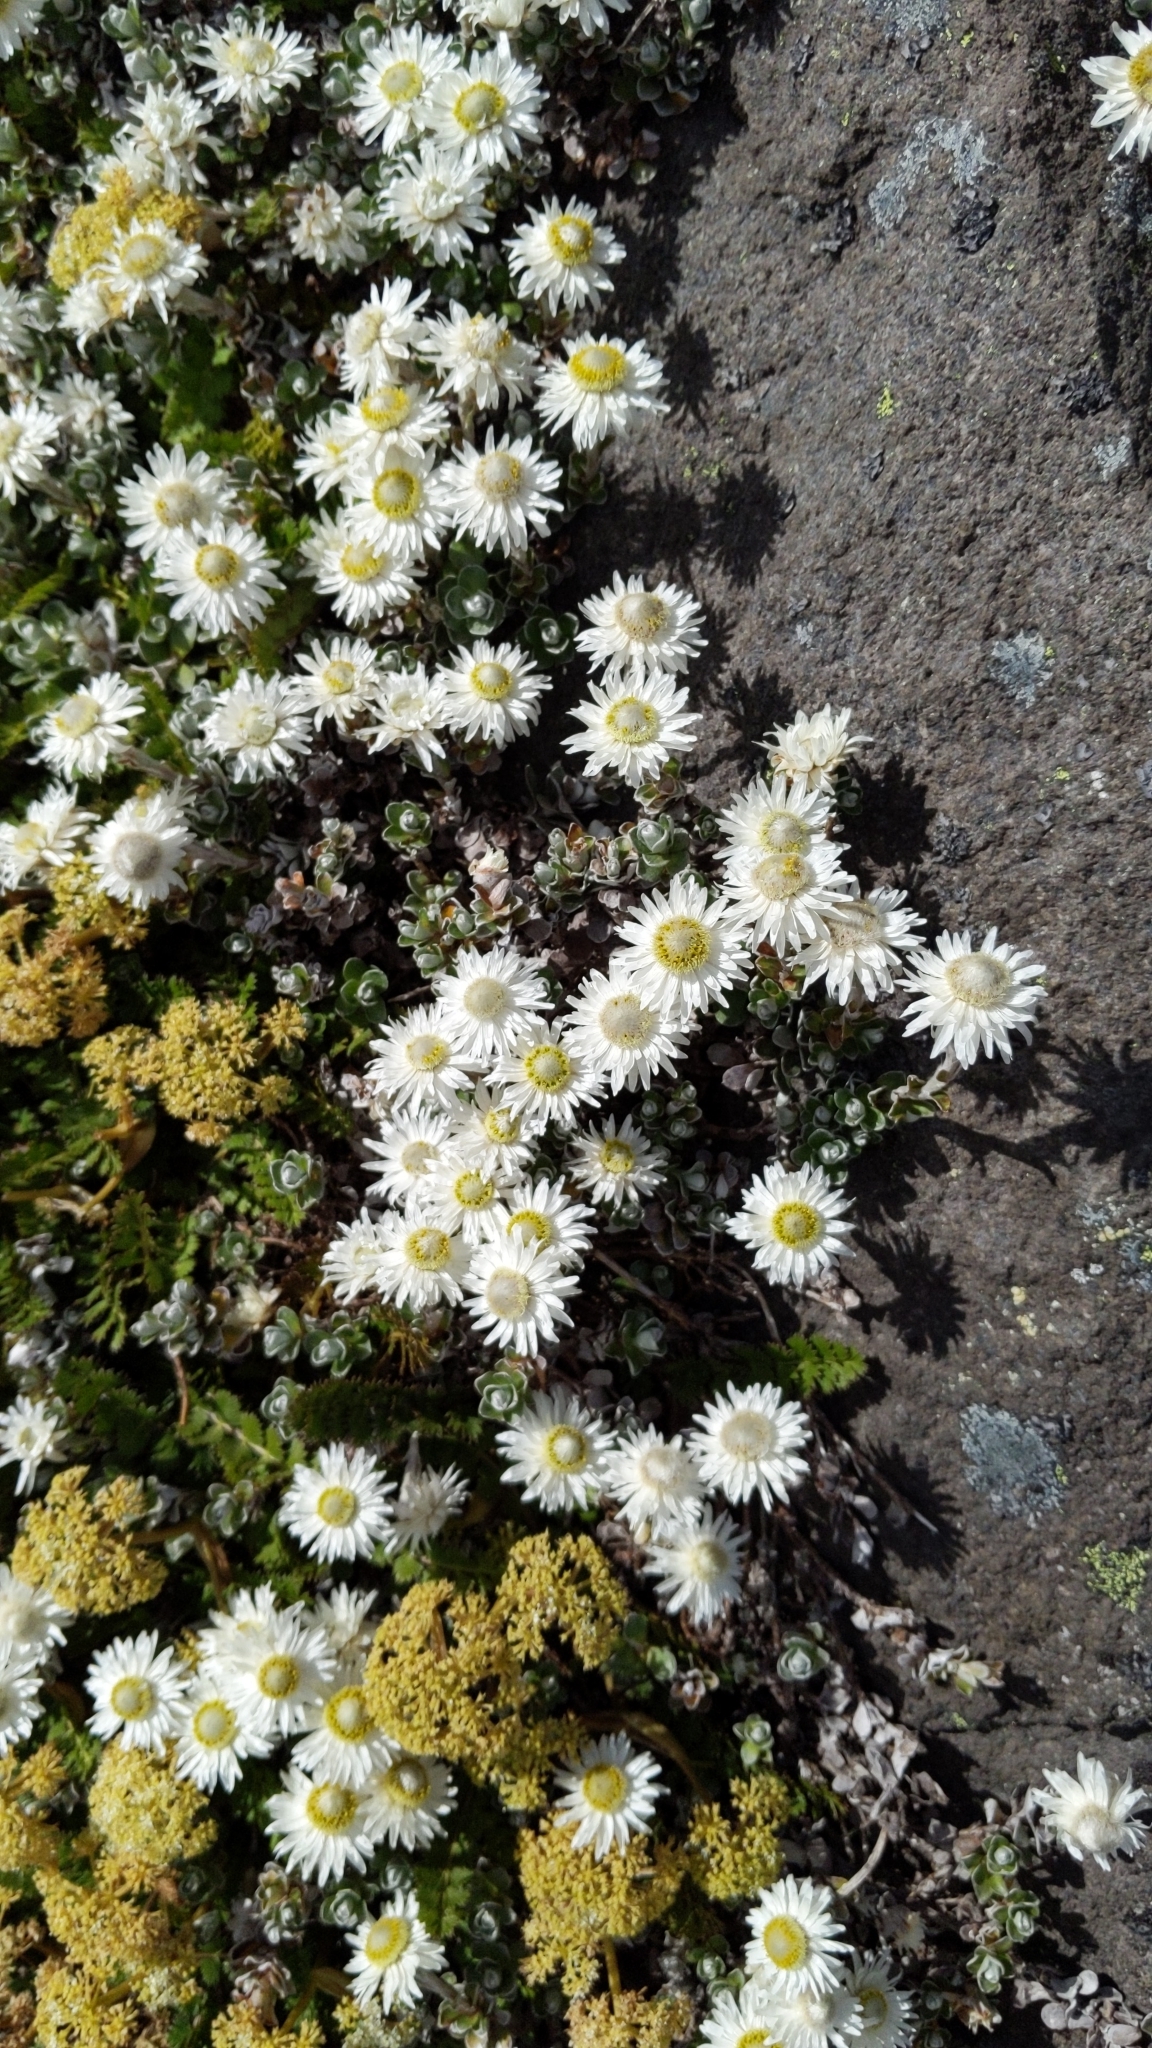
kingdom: Plantae
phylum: Tracheophyta
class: Magnoliopsida
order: Asterales
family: Asteraceae
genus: Anaphalioides
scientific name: Anaphalioides alpina
